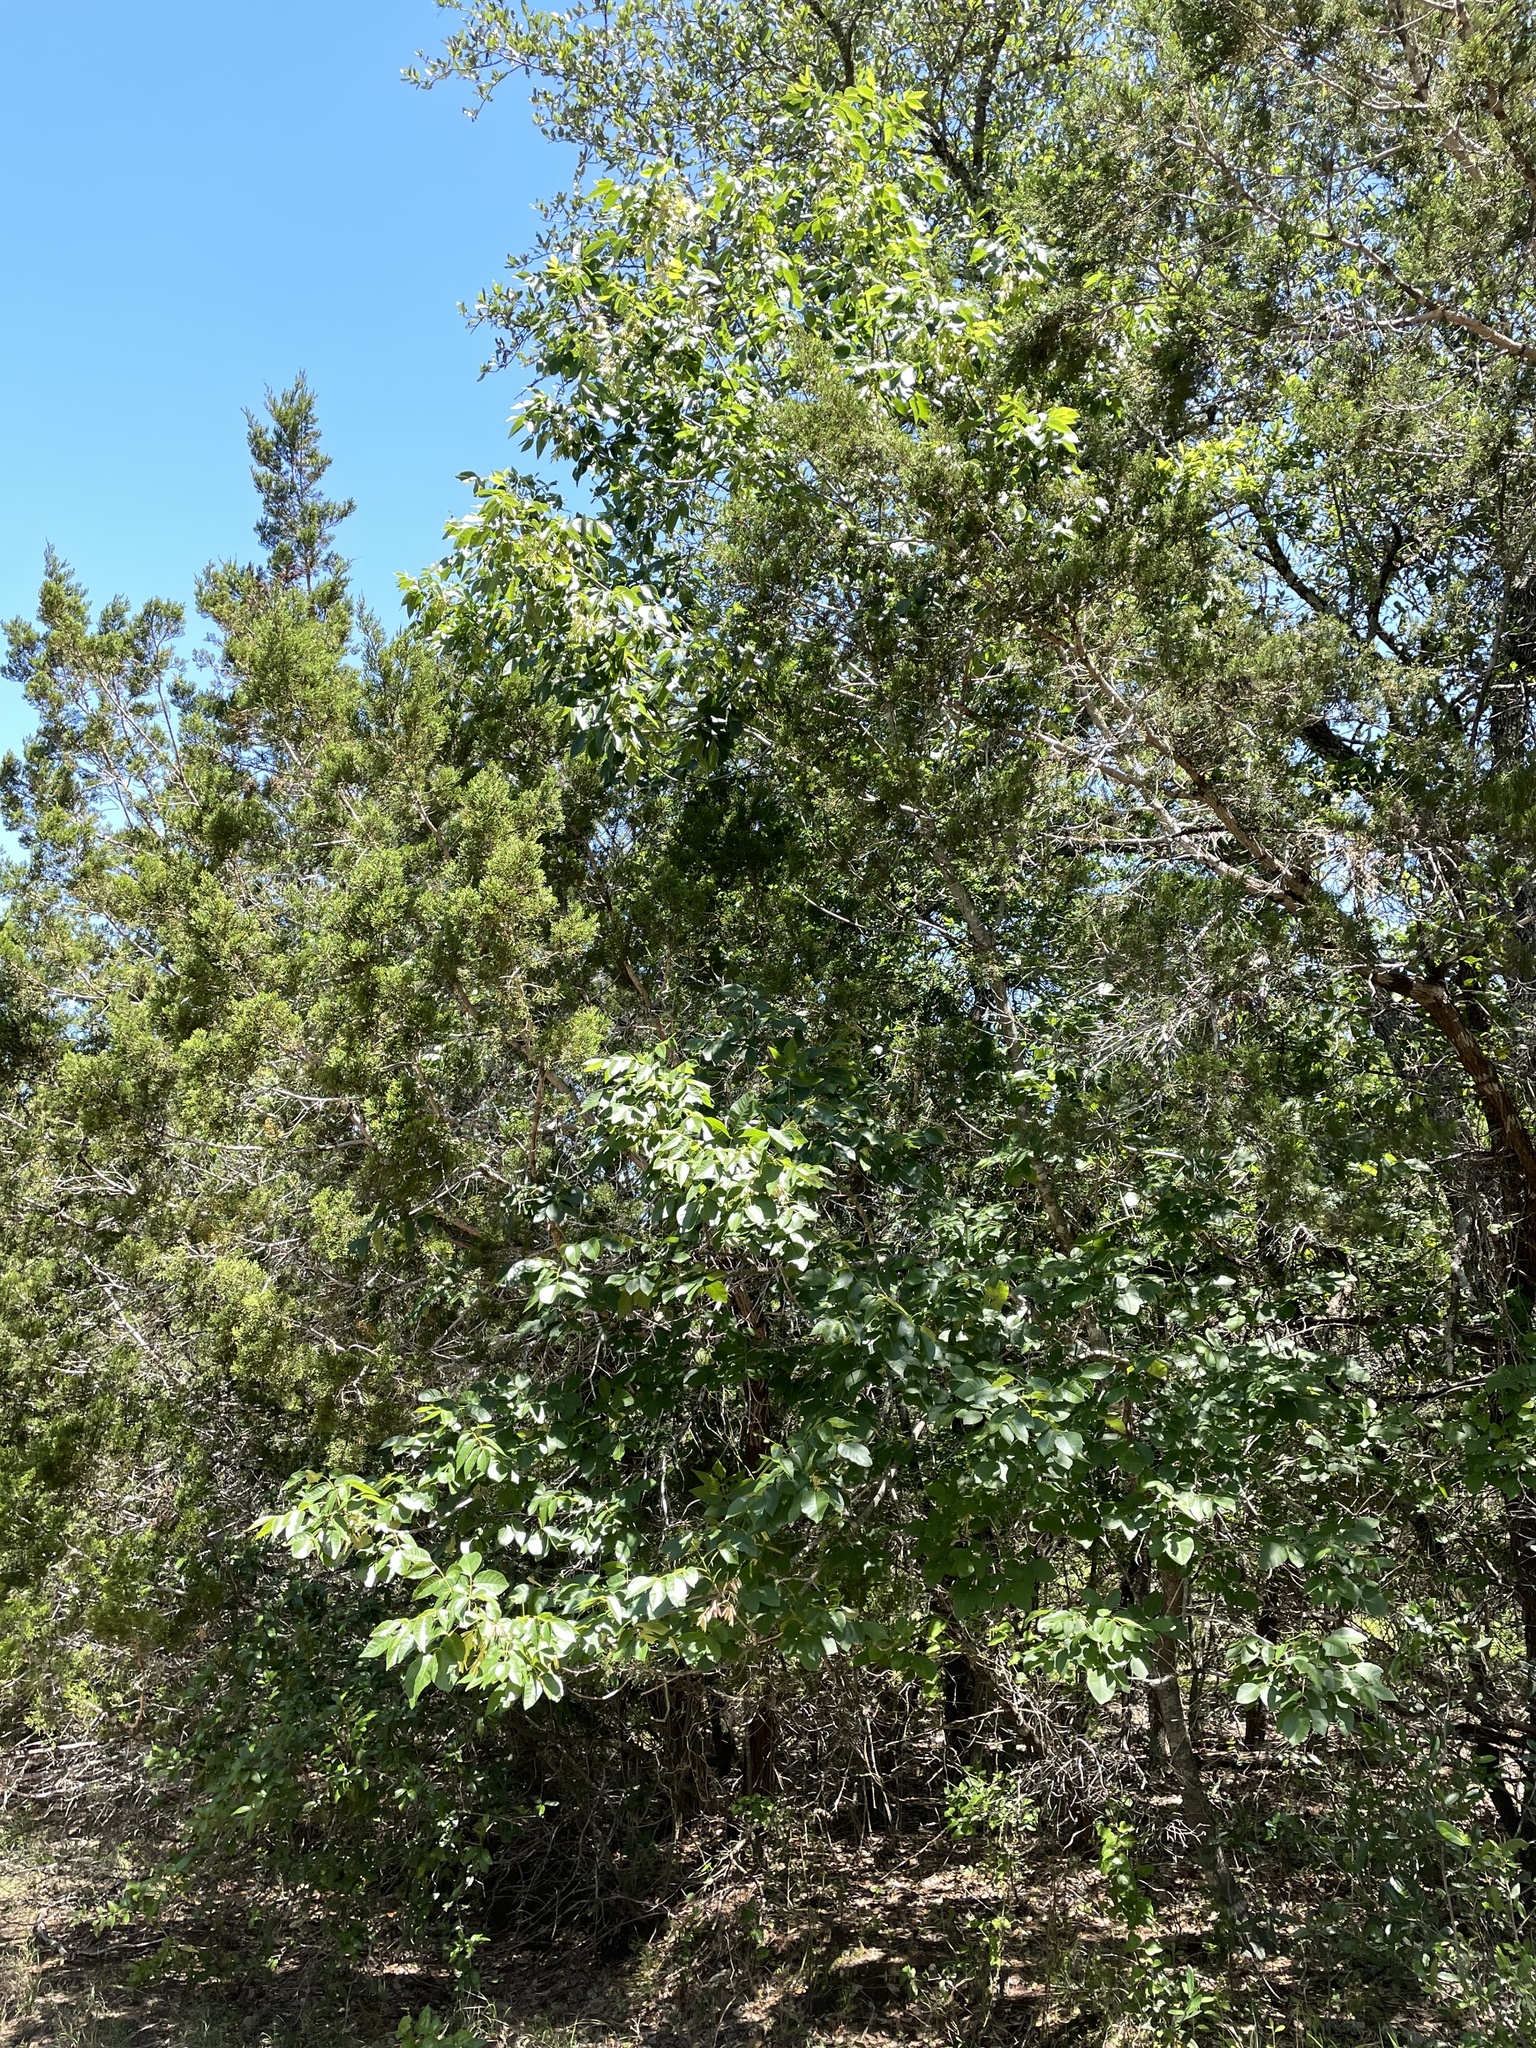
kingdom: Plantae
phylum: Tracheophyta
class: Magnoliopsida
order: Lamiales
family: Oleaceae
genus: Fraxinus
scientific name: Fraxinus albicans
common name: Texas ash
